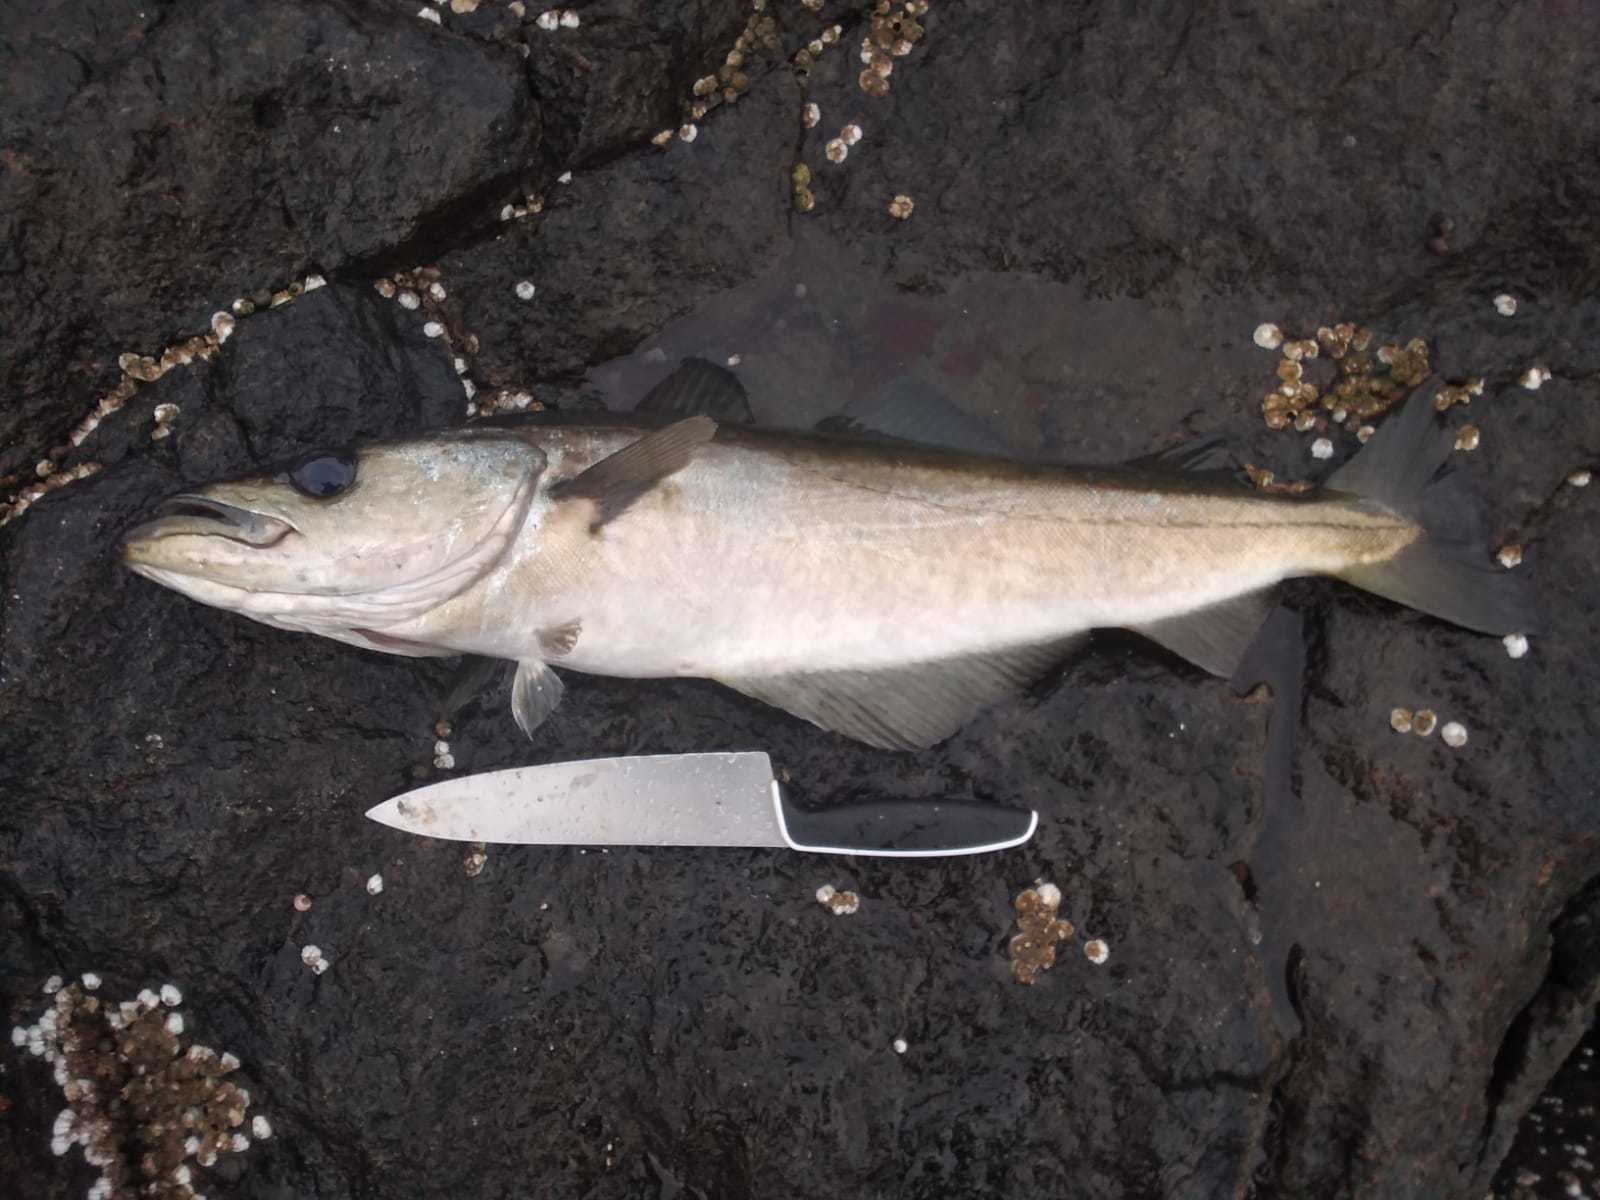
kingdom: Animalia
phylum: Chordata
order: Gadiformes
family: Gadidae
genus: Pollachius
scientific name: Pollachius pollachius
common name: Pollack
